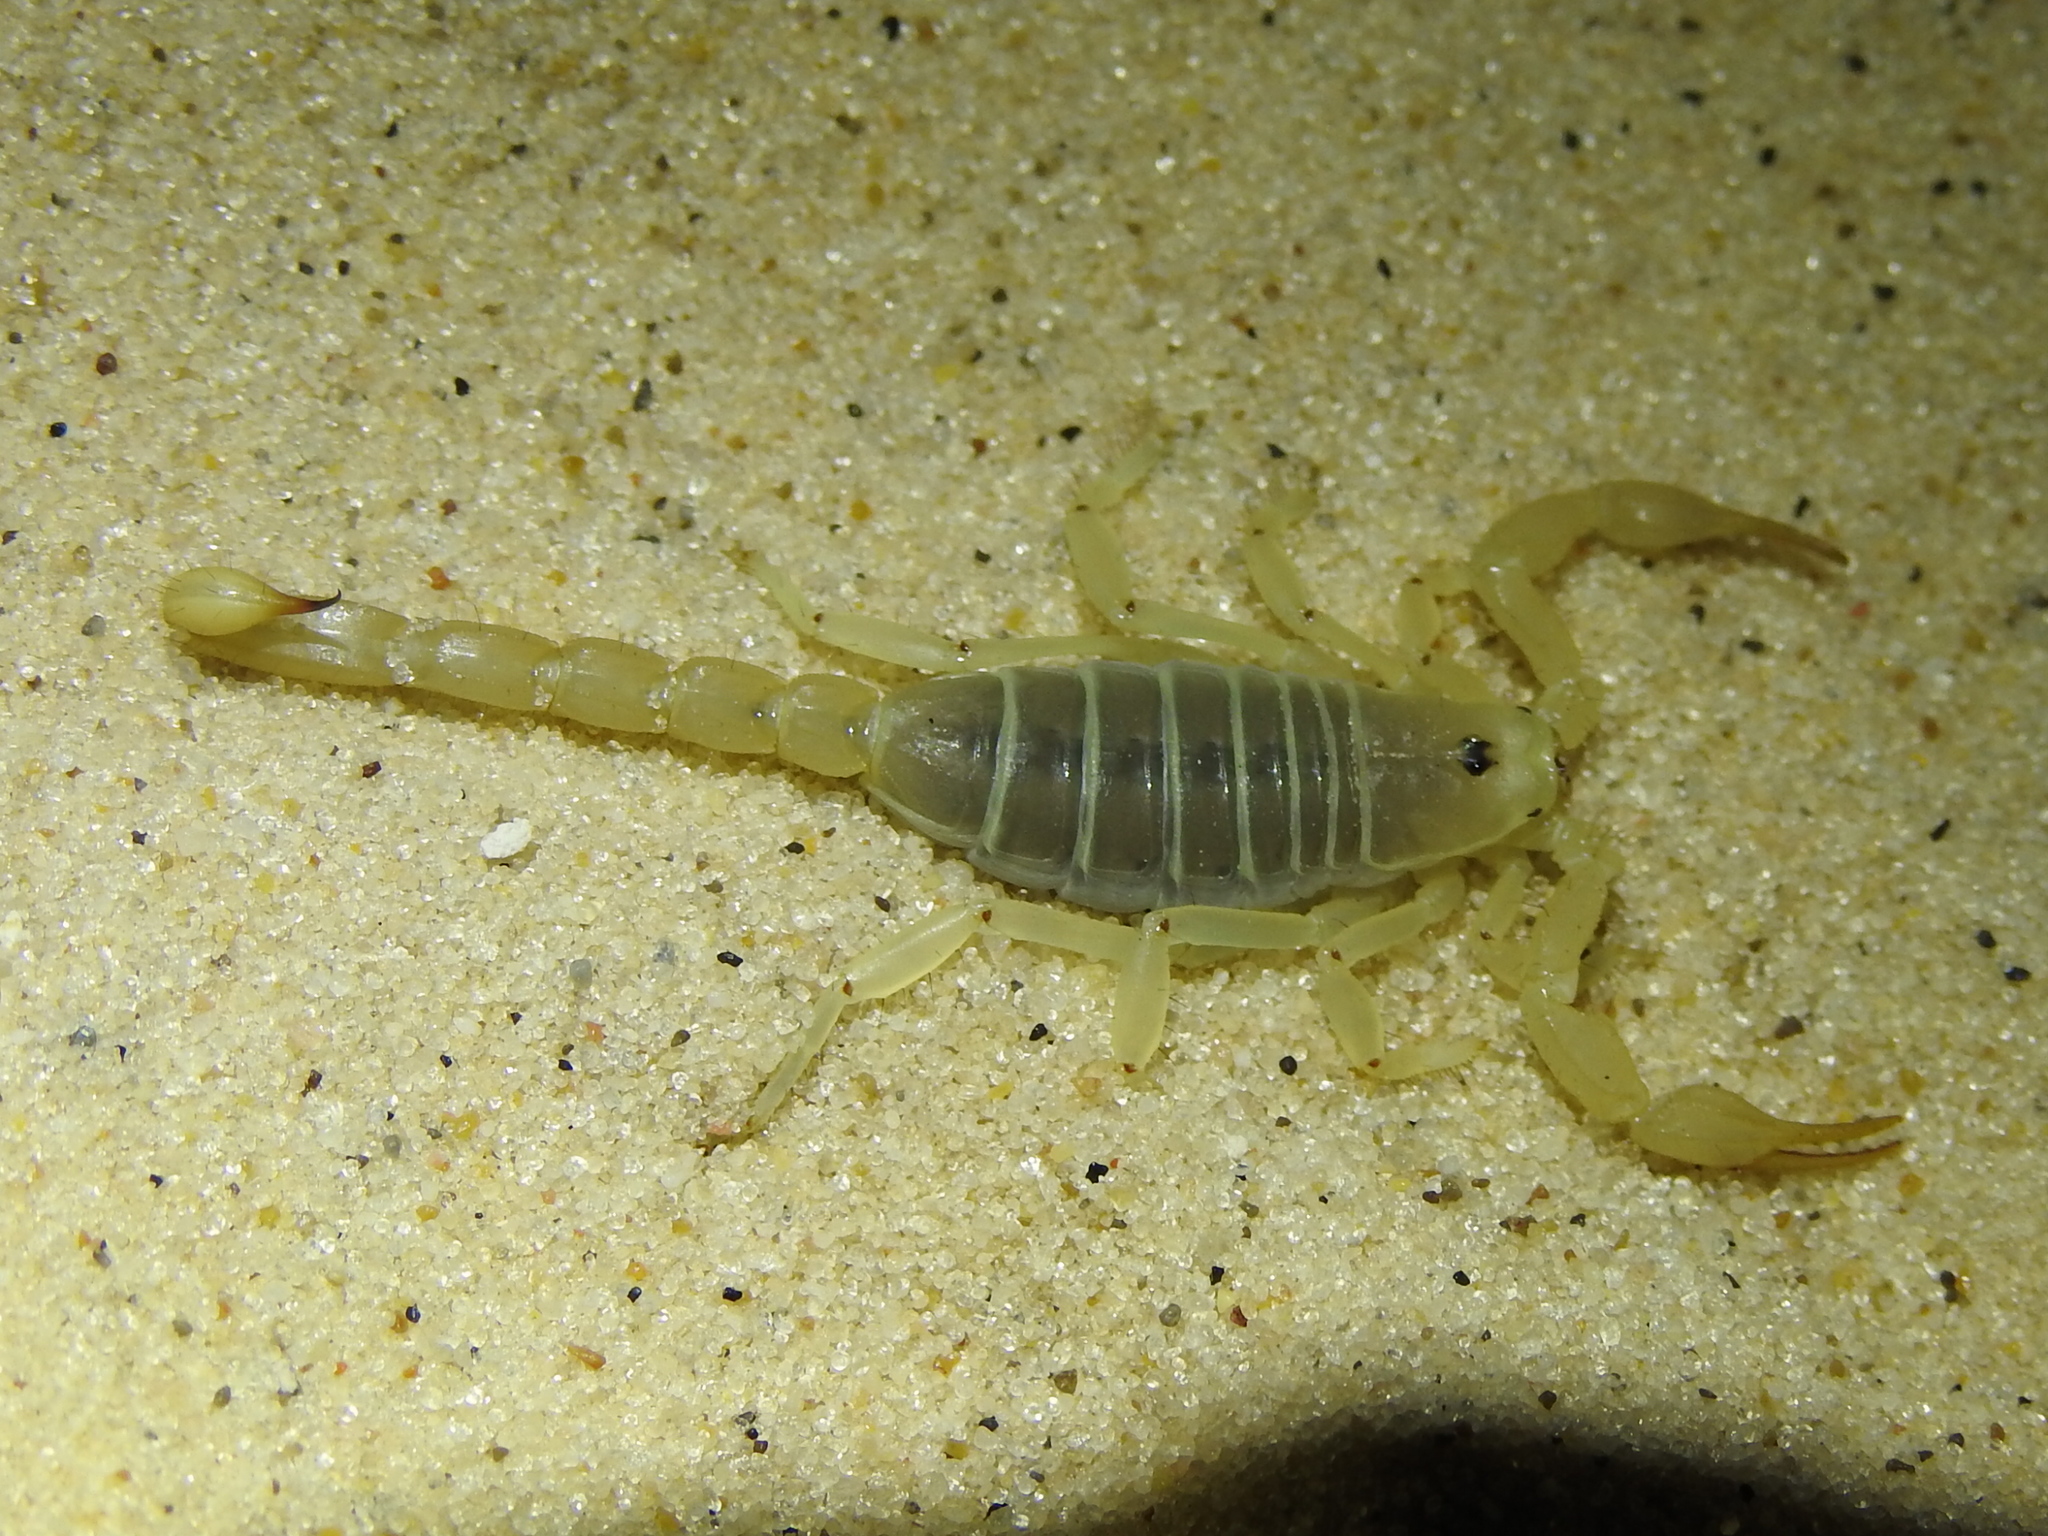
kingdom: Animalia
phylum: Arthropoda
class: Arachnida
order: Scorpiones
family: Vaejovidae
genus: Paruroctonus
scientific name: Paruroctonus utahensis
